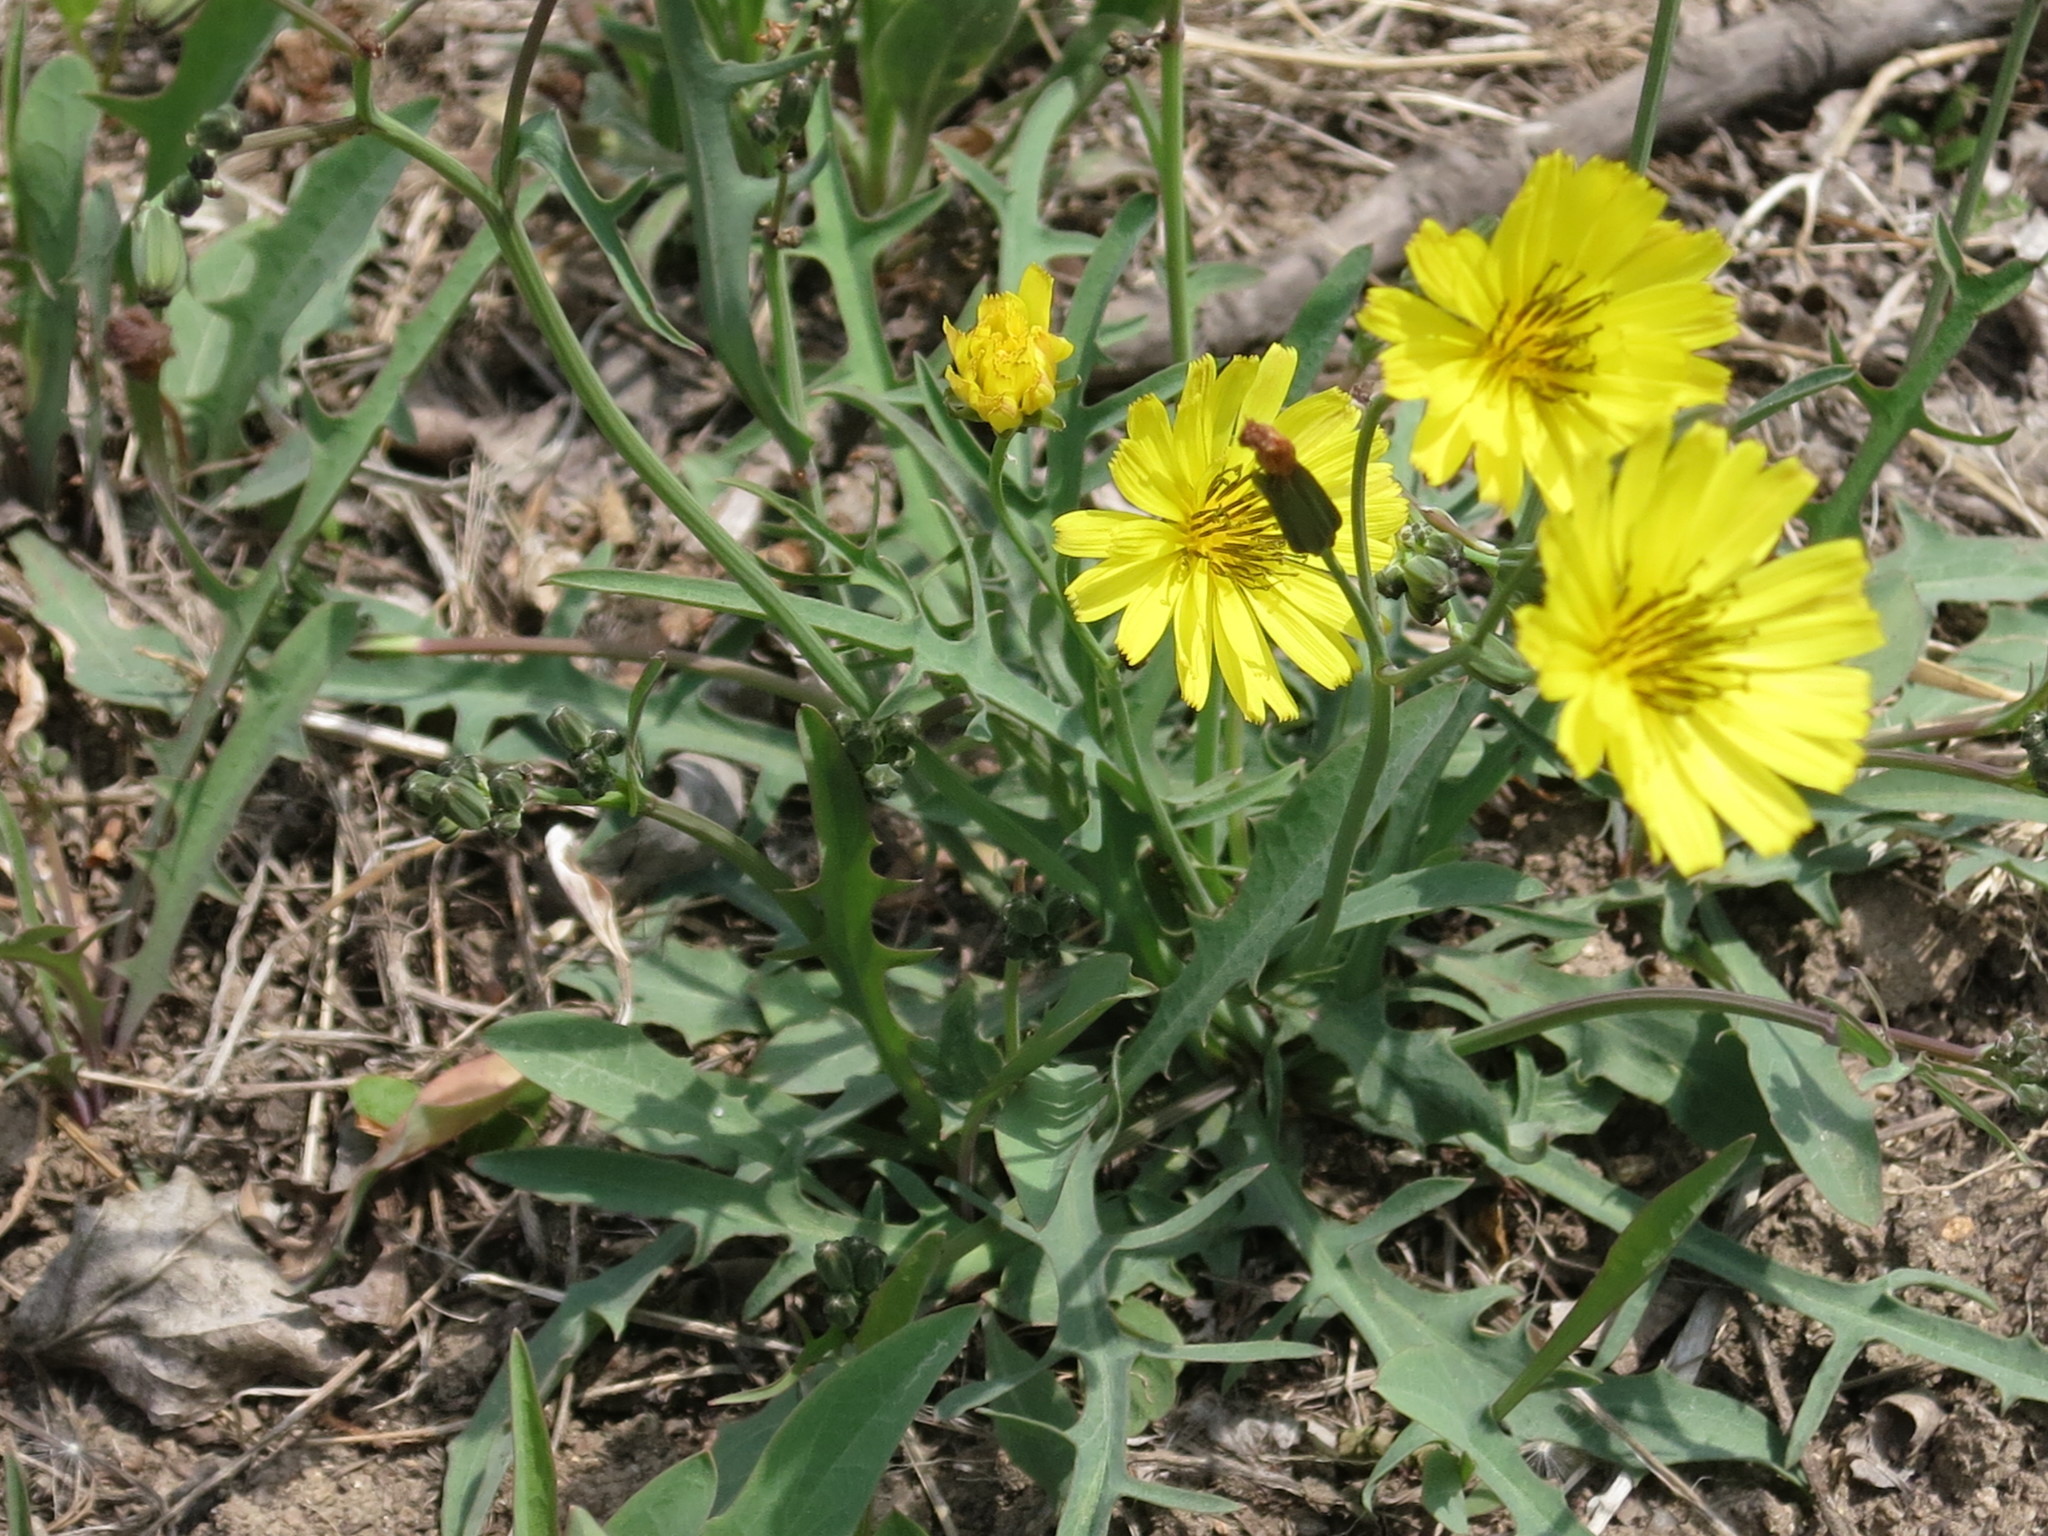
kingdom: Plantae
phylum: Tracheophyta
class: Magnoliopsida
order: Asterales
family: Asteraceae
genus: Ixeris
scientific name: Ixeris chinensis
